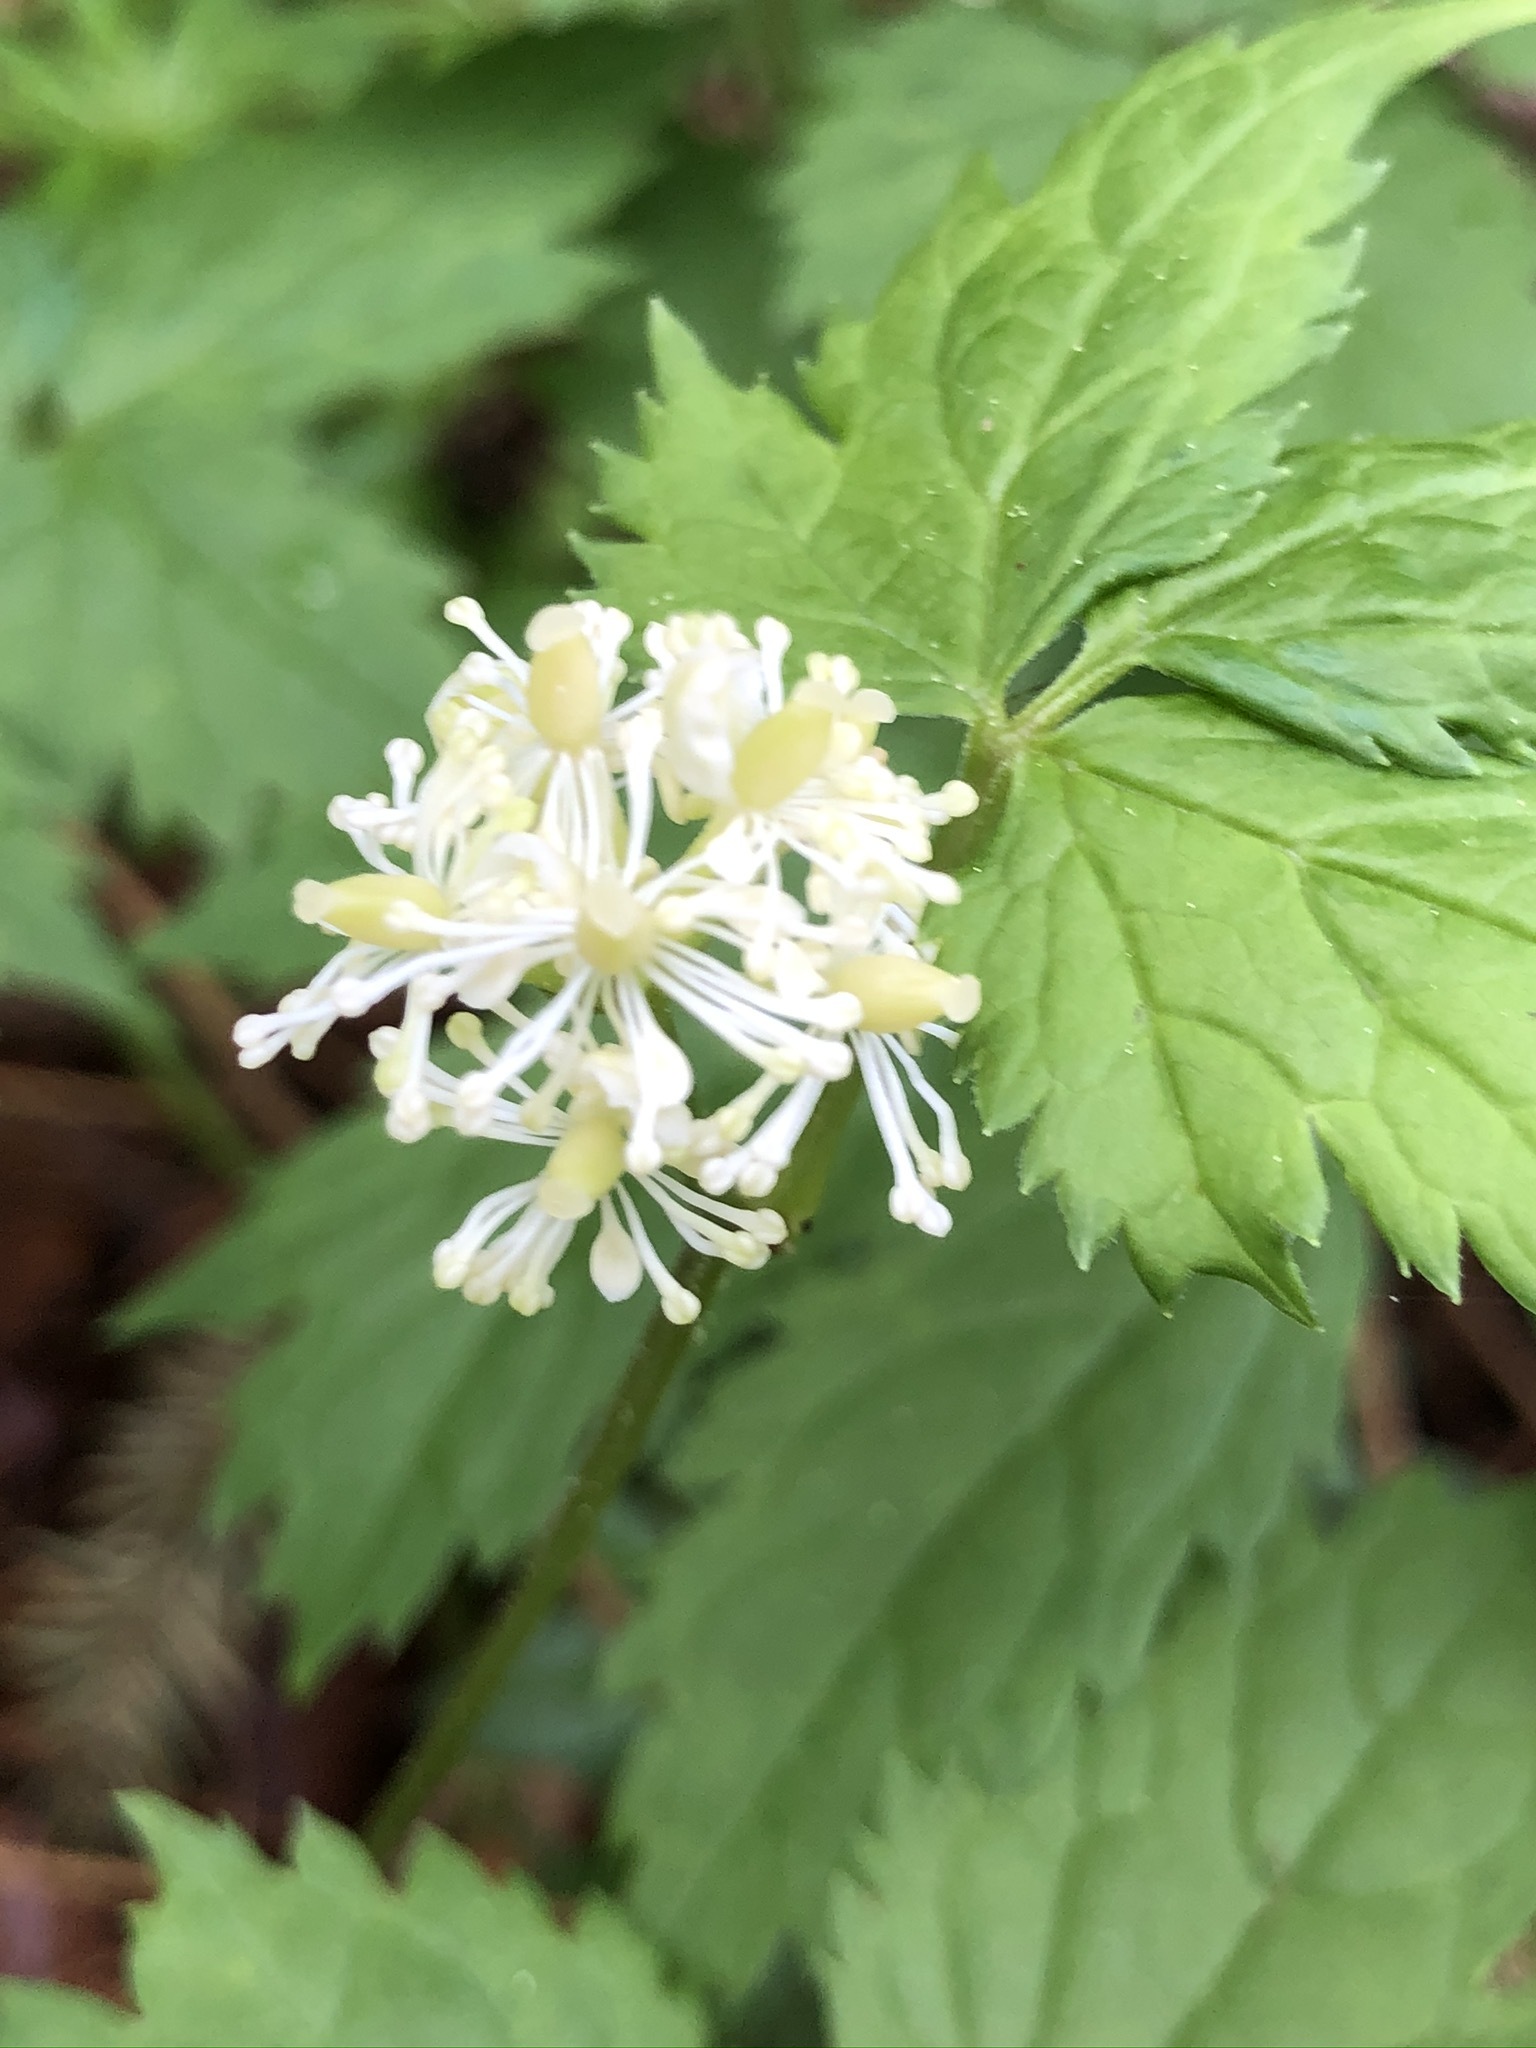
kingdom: Plantae
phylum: Tracheophyta
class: Magnoliopsida
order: Ranunculales
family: Ranunculaceae
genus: Actaea
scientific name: Actaea spicata
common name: Baneberry
